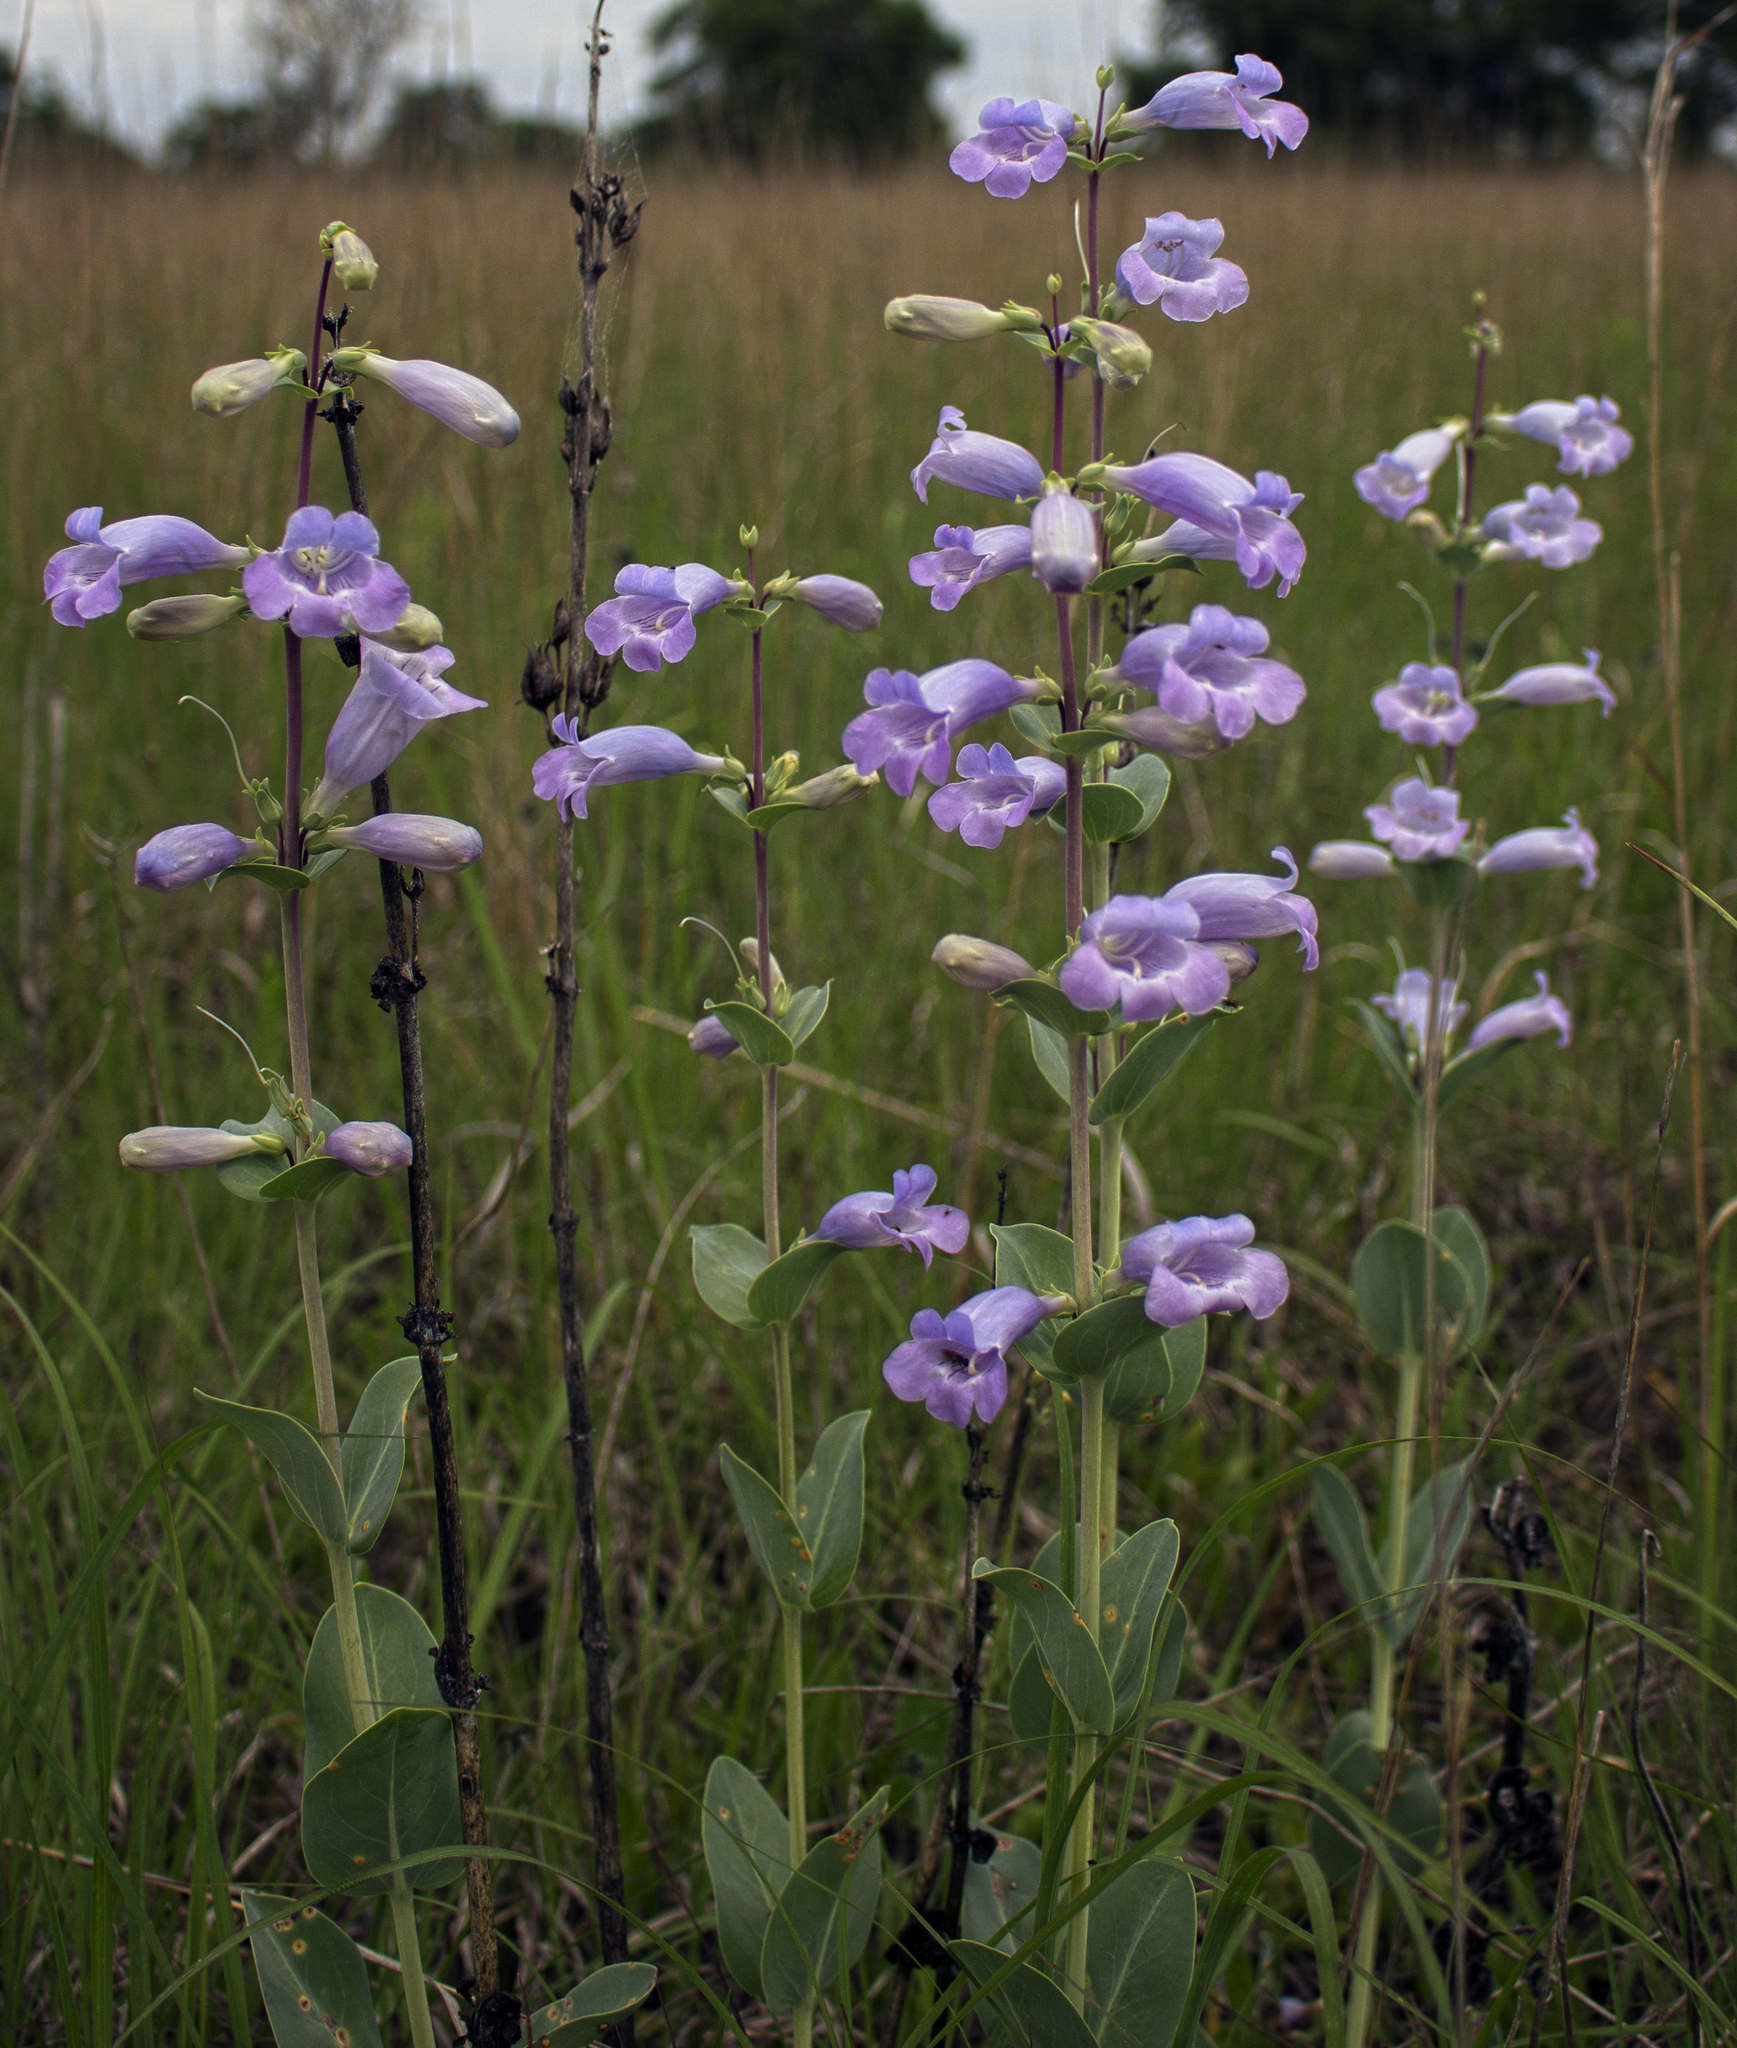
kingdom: Plantae
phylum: Tracheophyta
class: Magnoliopsida
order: Lamiales
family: Plantaginaceae
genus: Penstemon
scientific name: Penstemon
